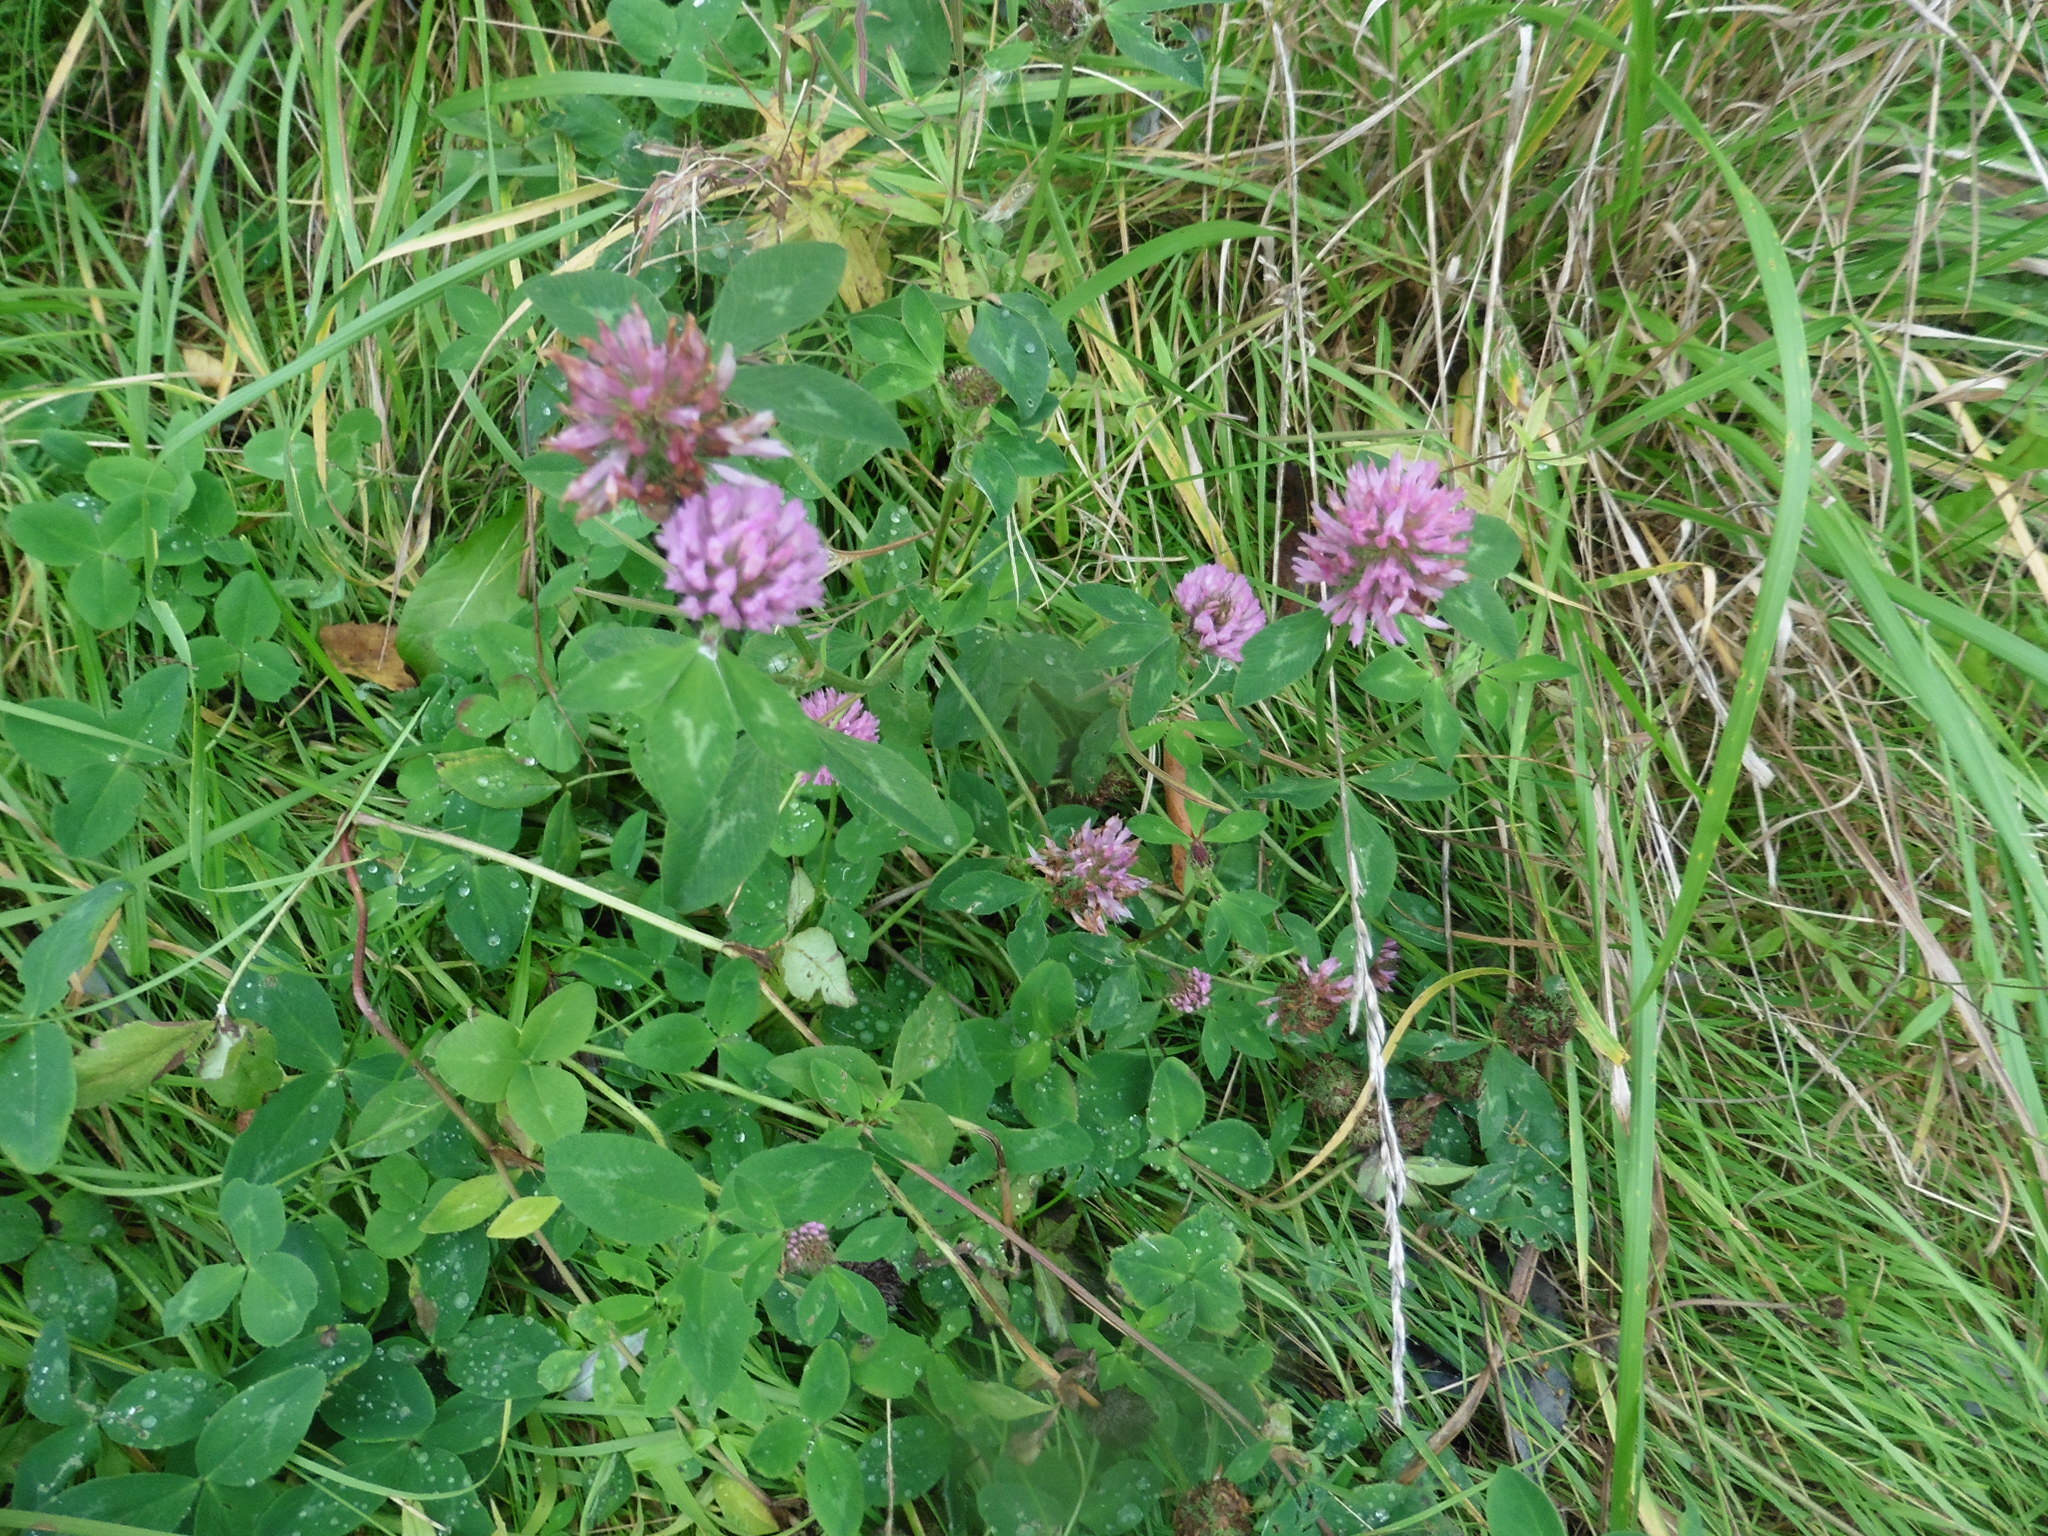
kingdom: Plantae
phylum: Tracheophyta
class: Magnoliopsida
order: Fabales
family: Fabaceae
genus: Trifolium
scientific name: Trifolium pratense
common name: Red clover
